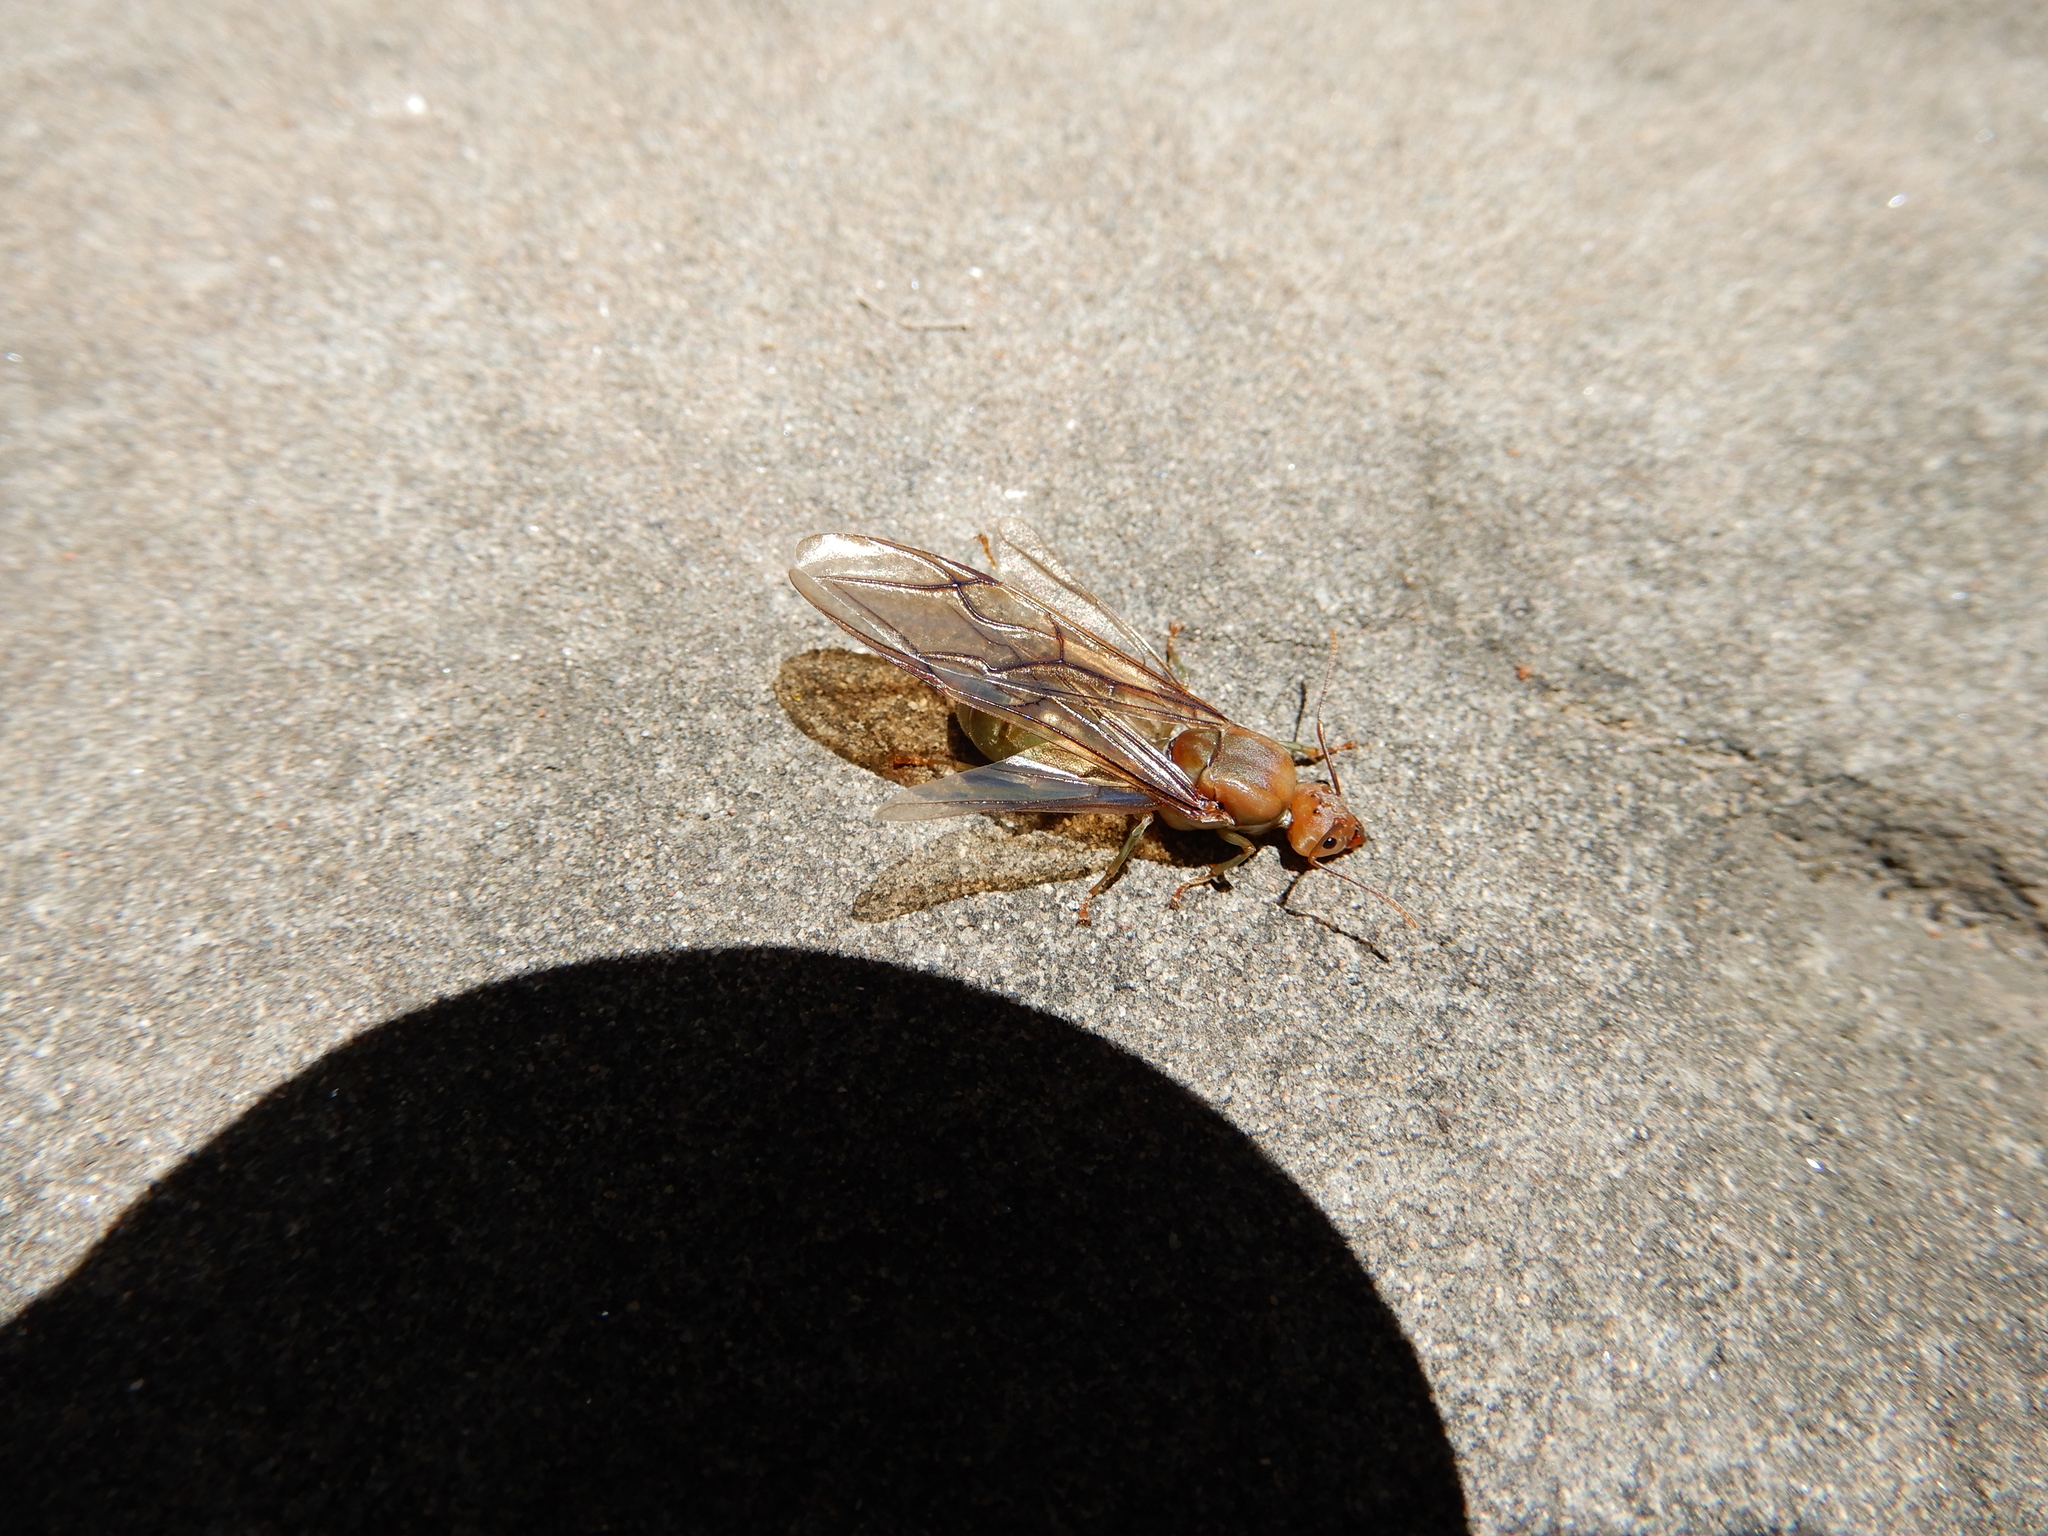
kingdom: Animalia
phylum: Arthropoda
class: Insecta
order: Hymenoptera
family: Formicidae
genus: Oecophylla
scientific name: Oecophylla smaragdina
